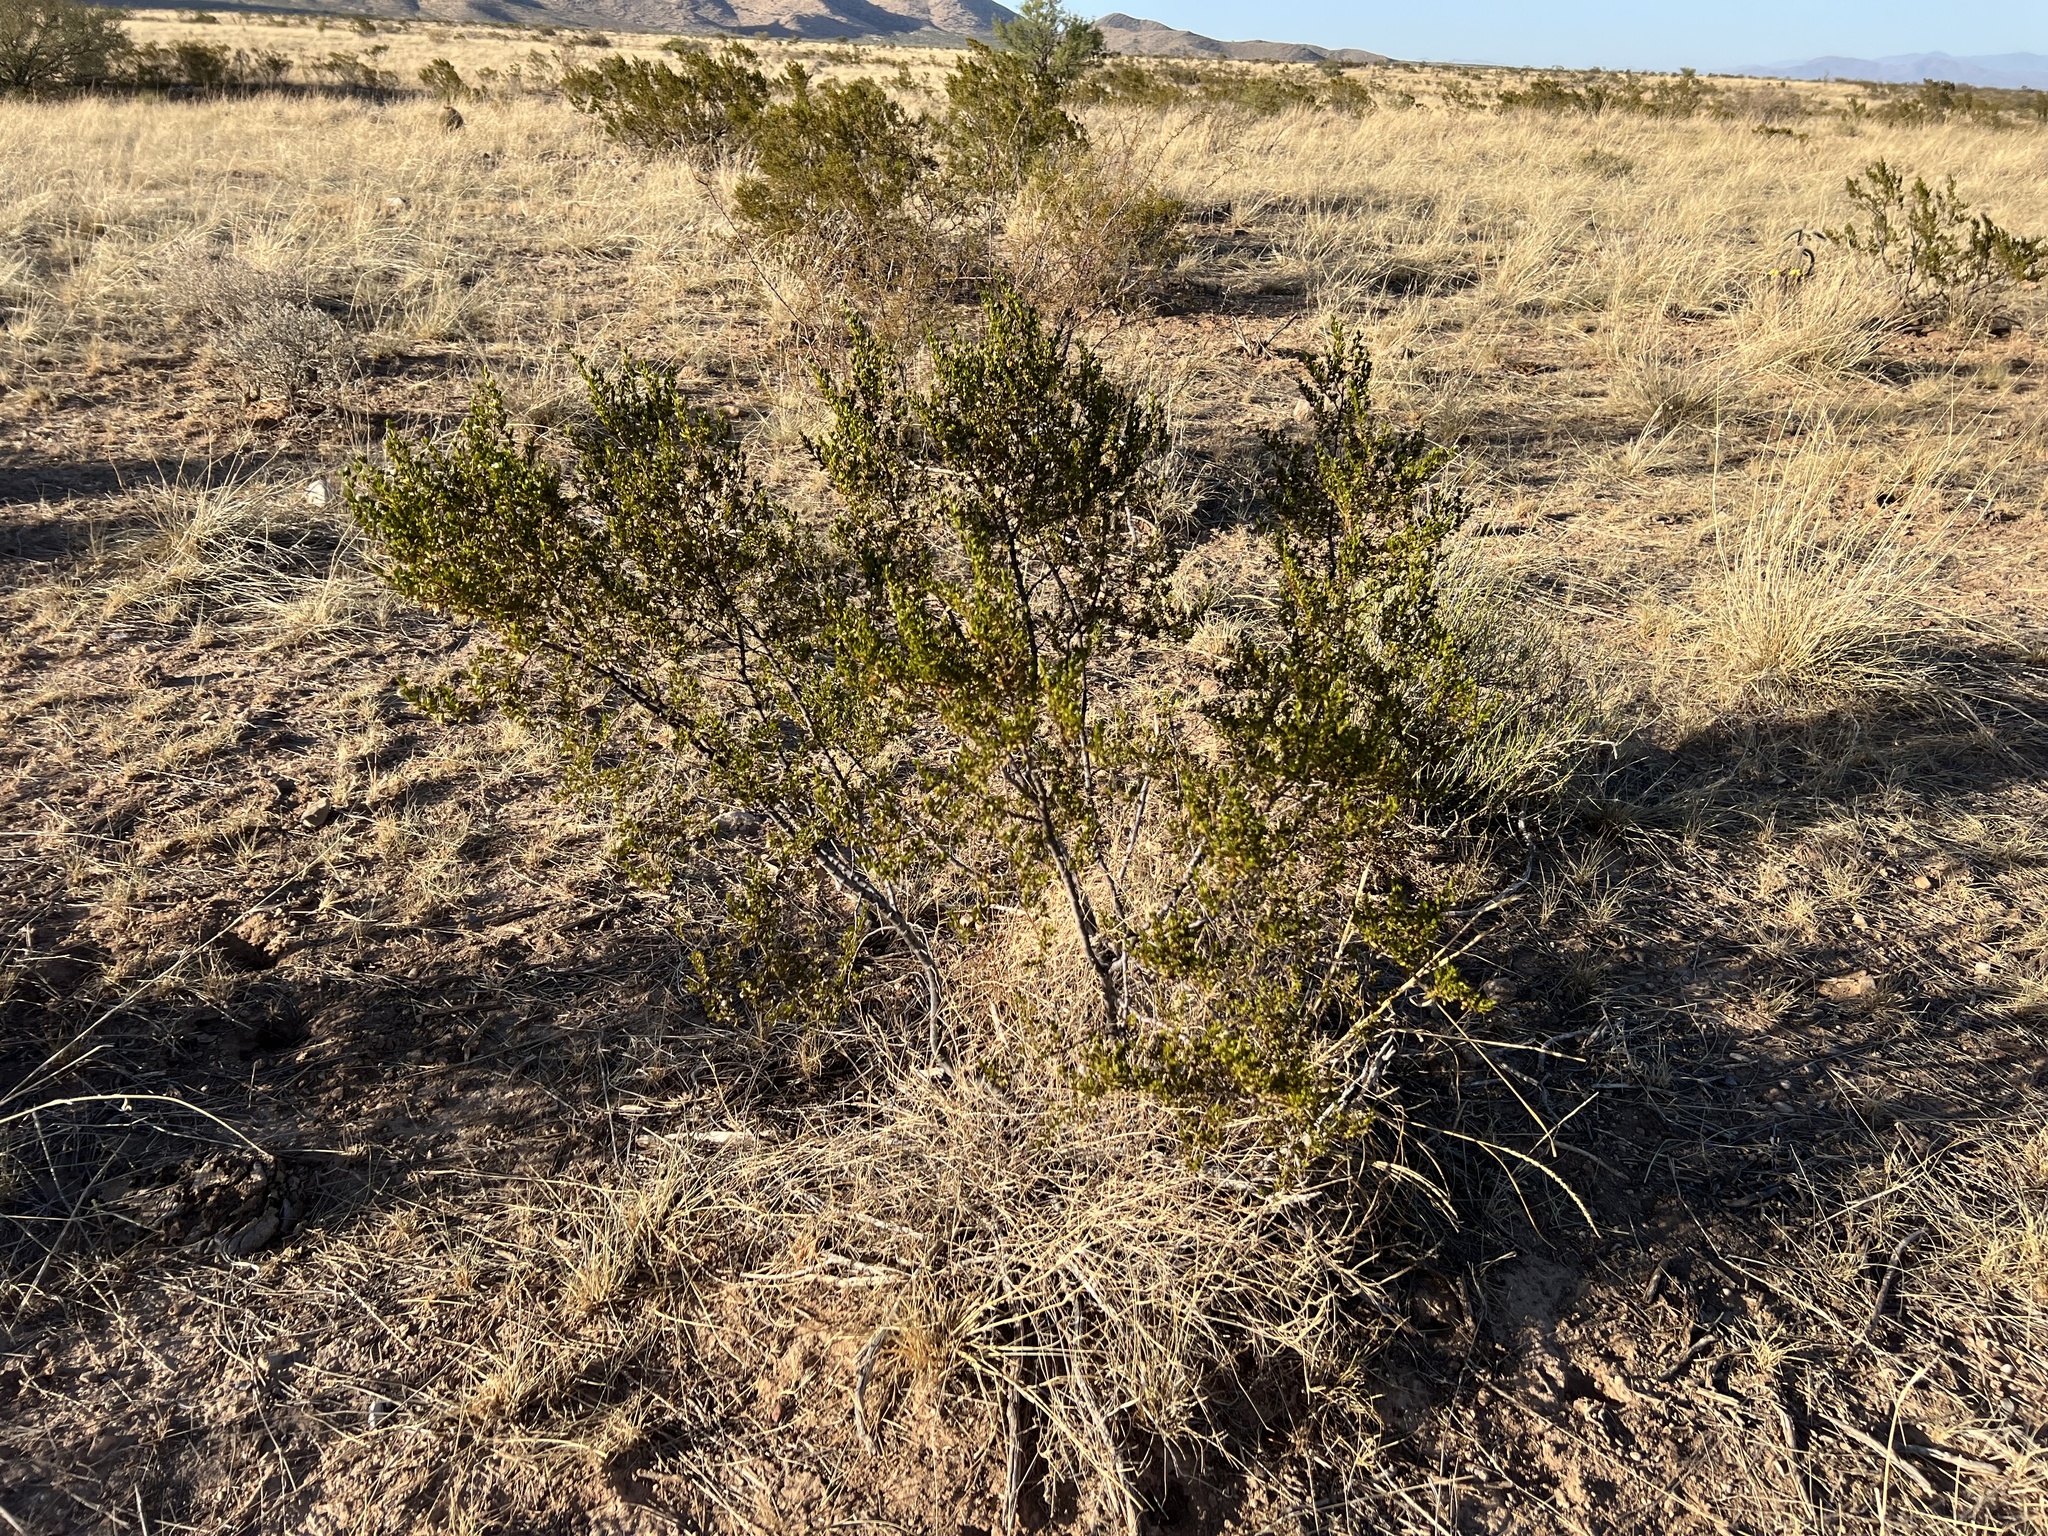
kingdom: Plantae
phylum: Tracheophyta
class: Magnoliopsida
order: Zygophyllales
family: Zygophyllaceae
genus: Larrea
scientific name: Larrea tridentata
